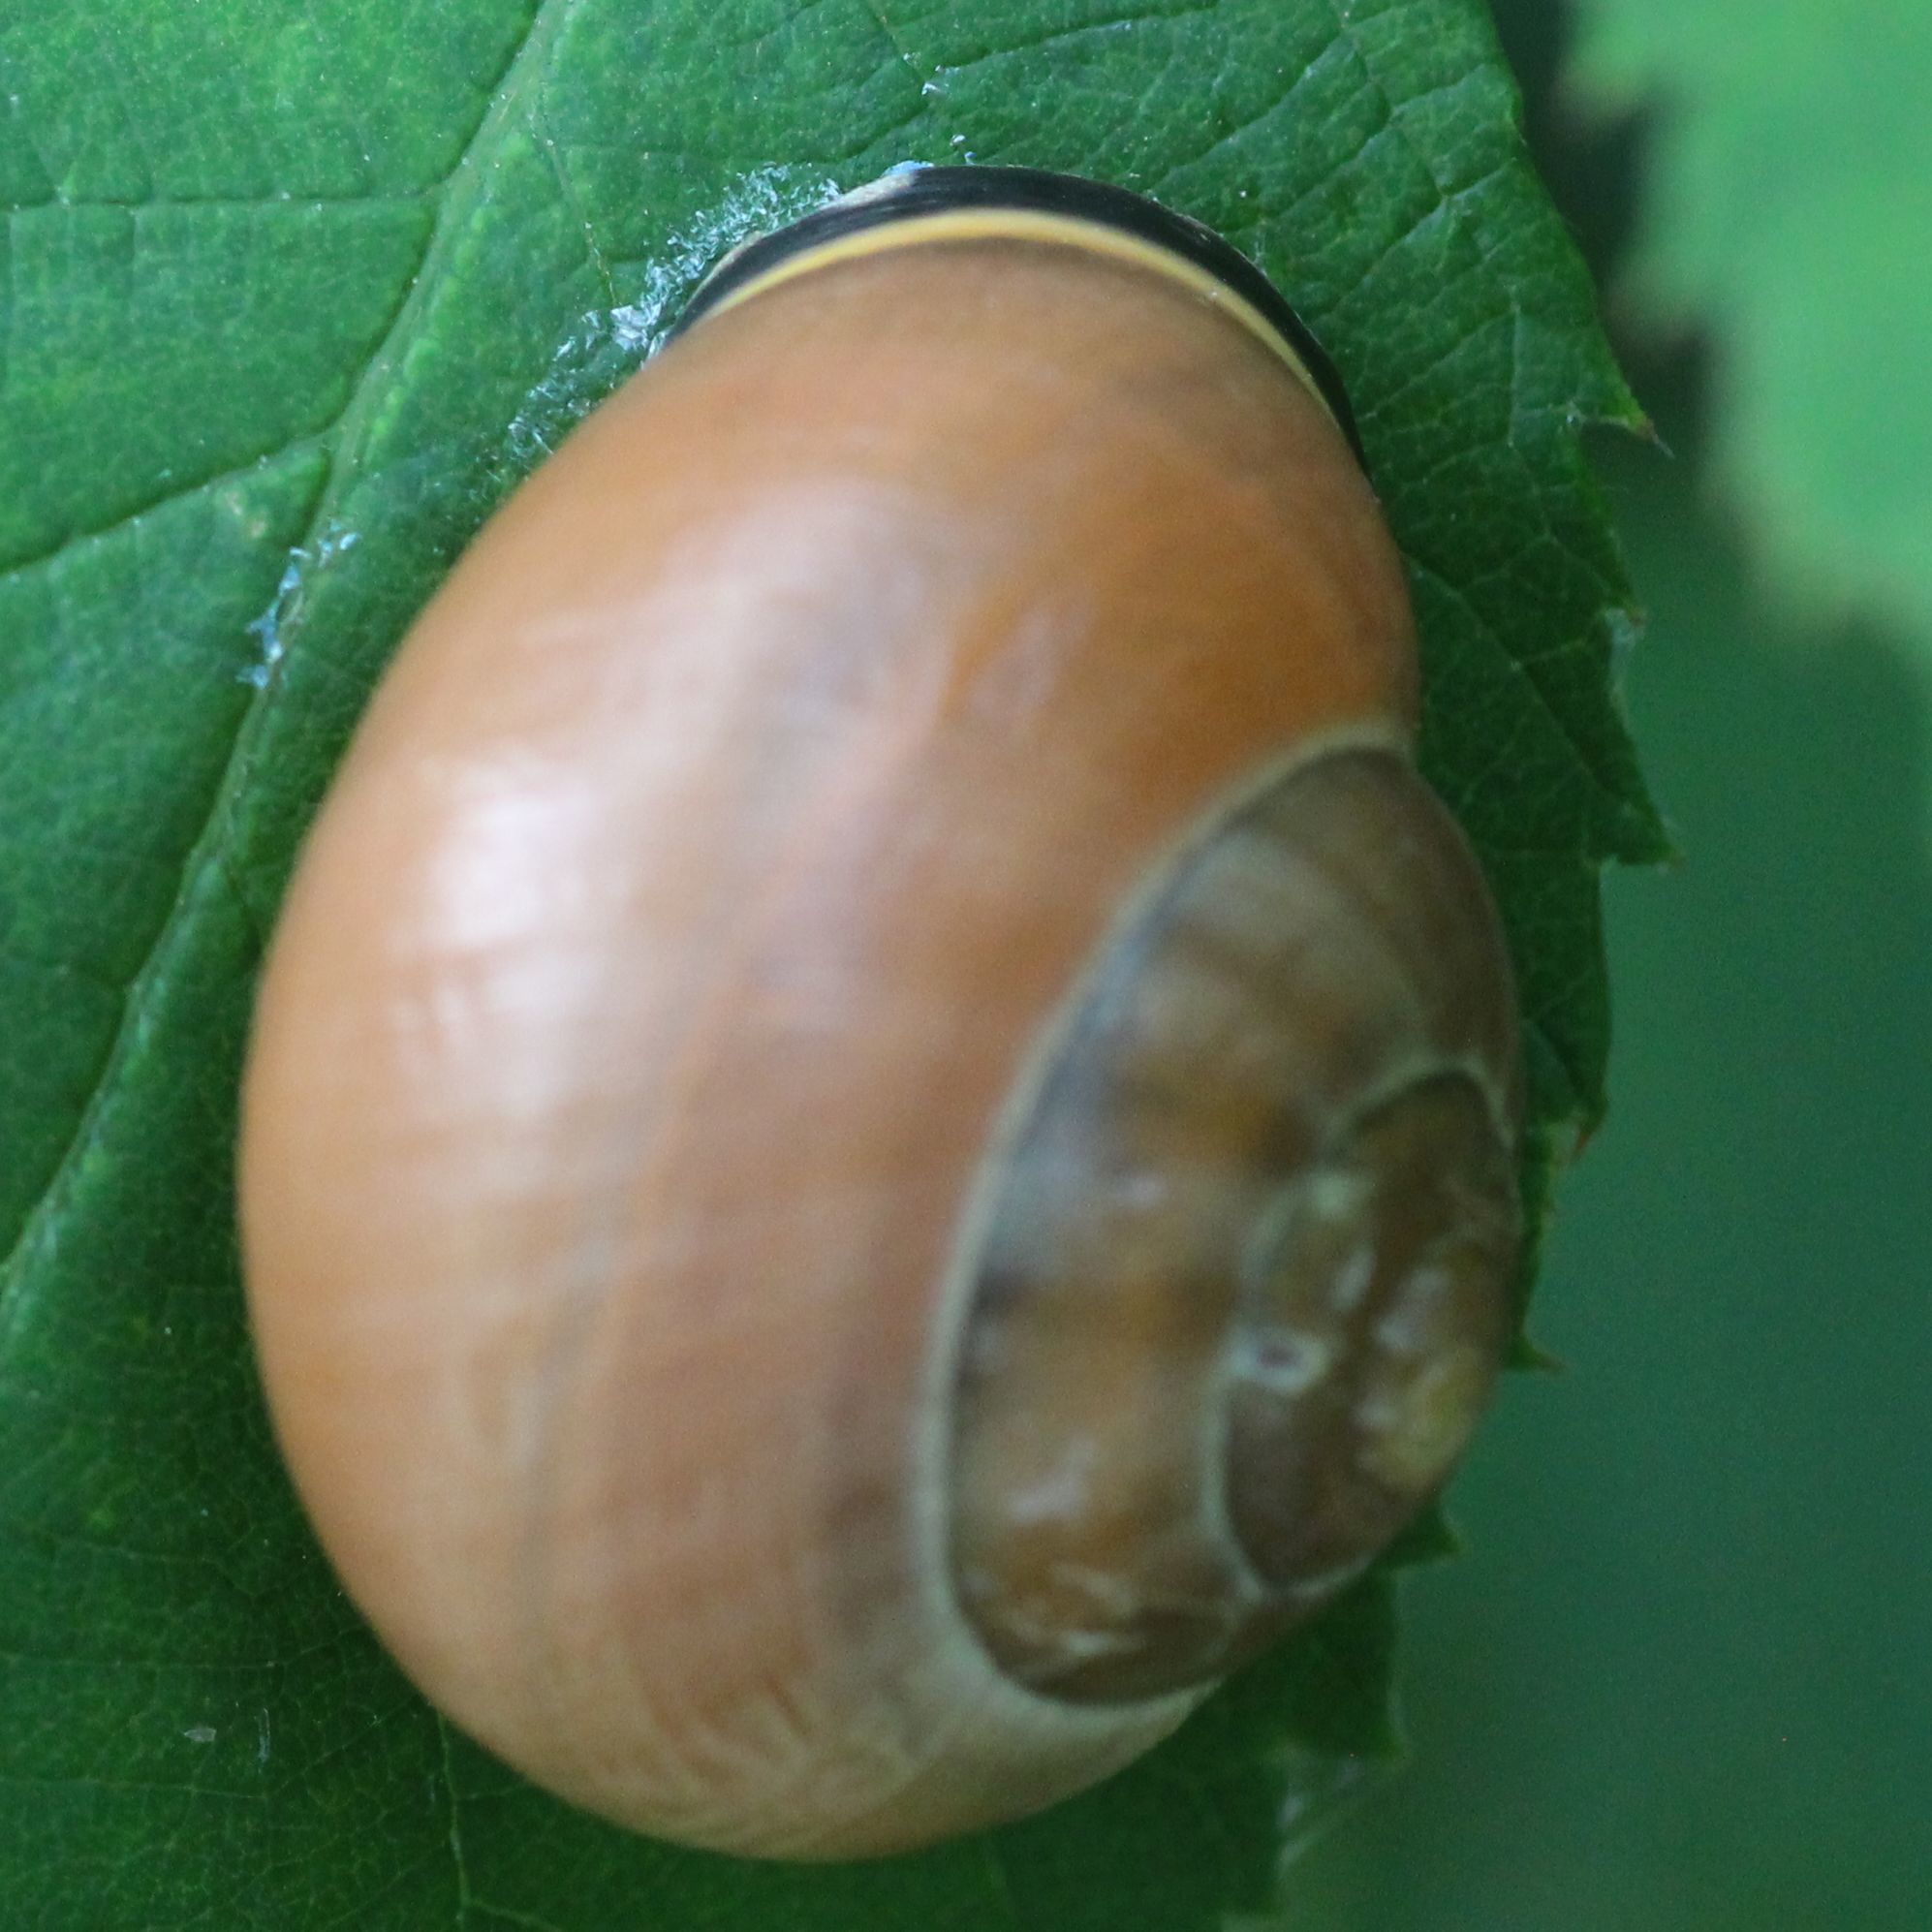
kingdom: Animalia
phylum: Mollusca
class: Gastropoda
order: Stylommatophora
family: Helicidae
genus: Cepaea
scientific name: Cepaea nemoralis
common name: Grovesnail
